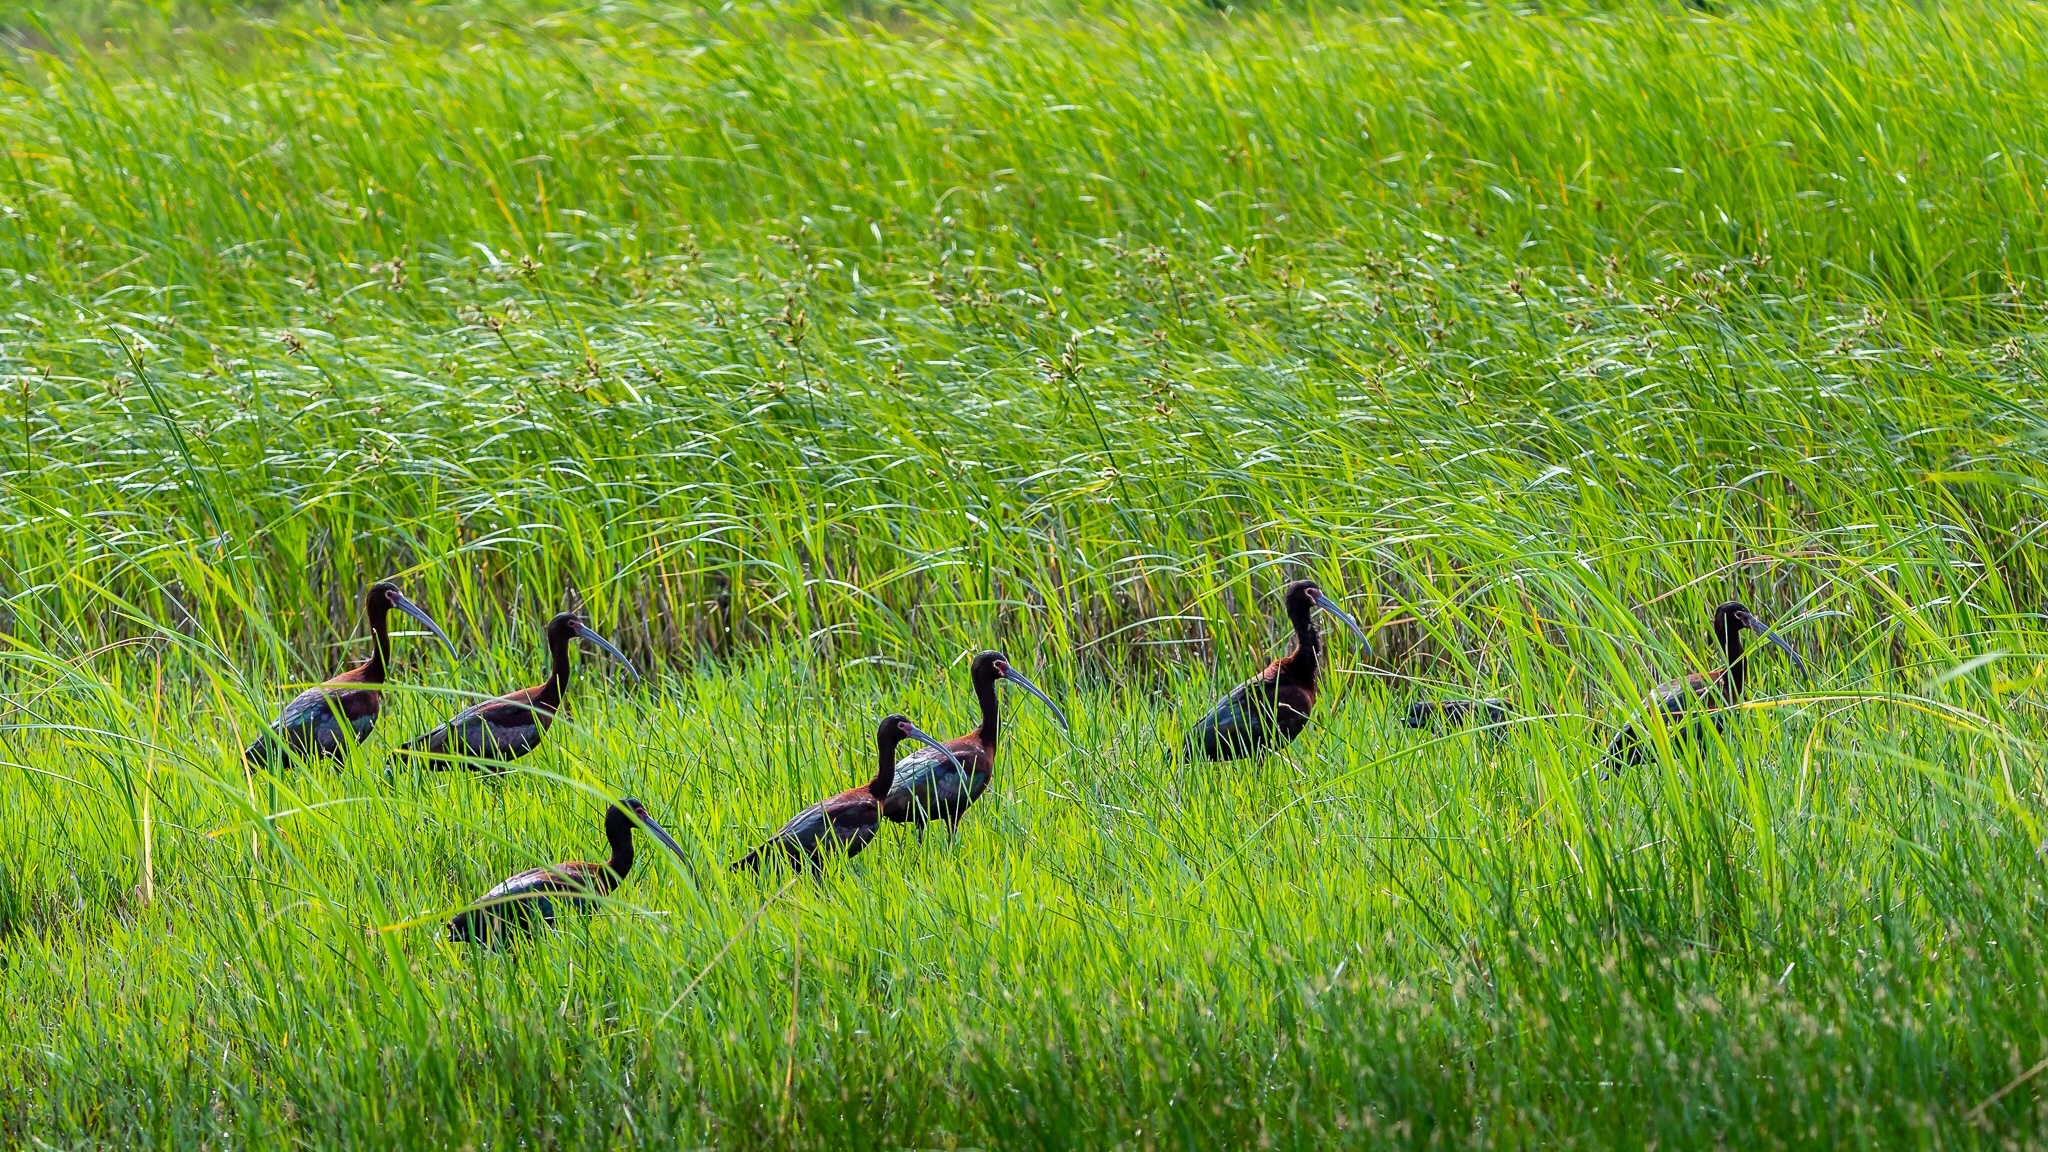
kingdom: Animalia
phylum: Chordata
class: Aves
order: Pelecaniformes
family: Threskiornithidae
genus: Plegadis
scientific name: Plegadis chihi
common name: White-faced ibis
